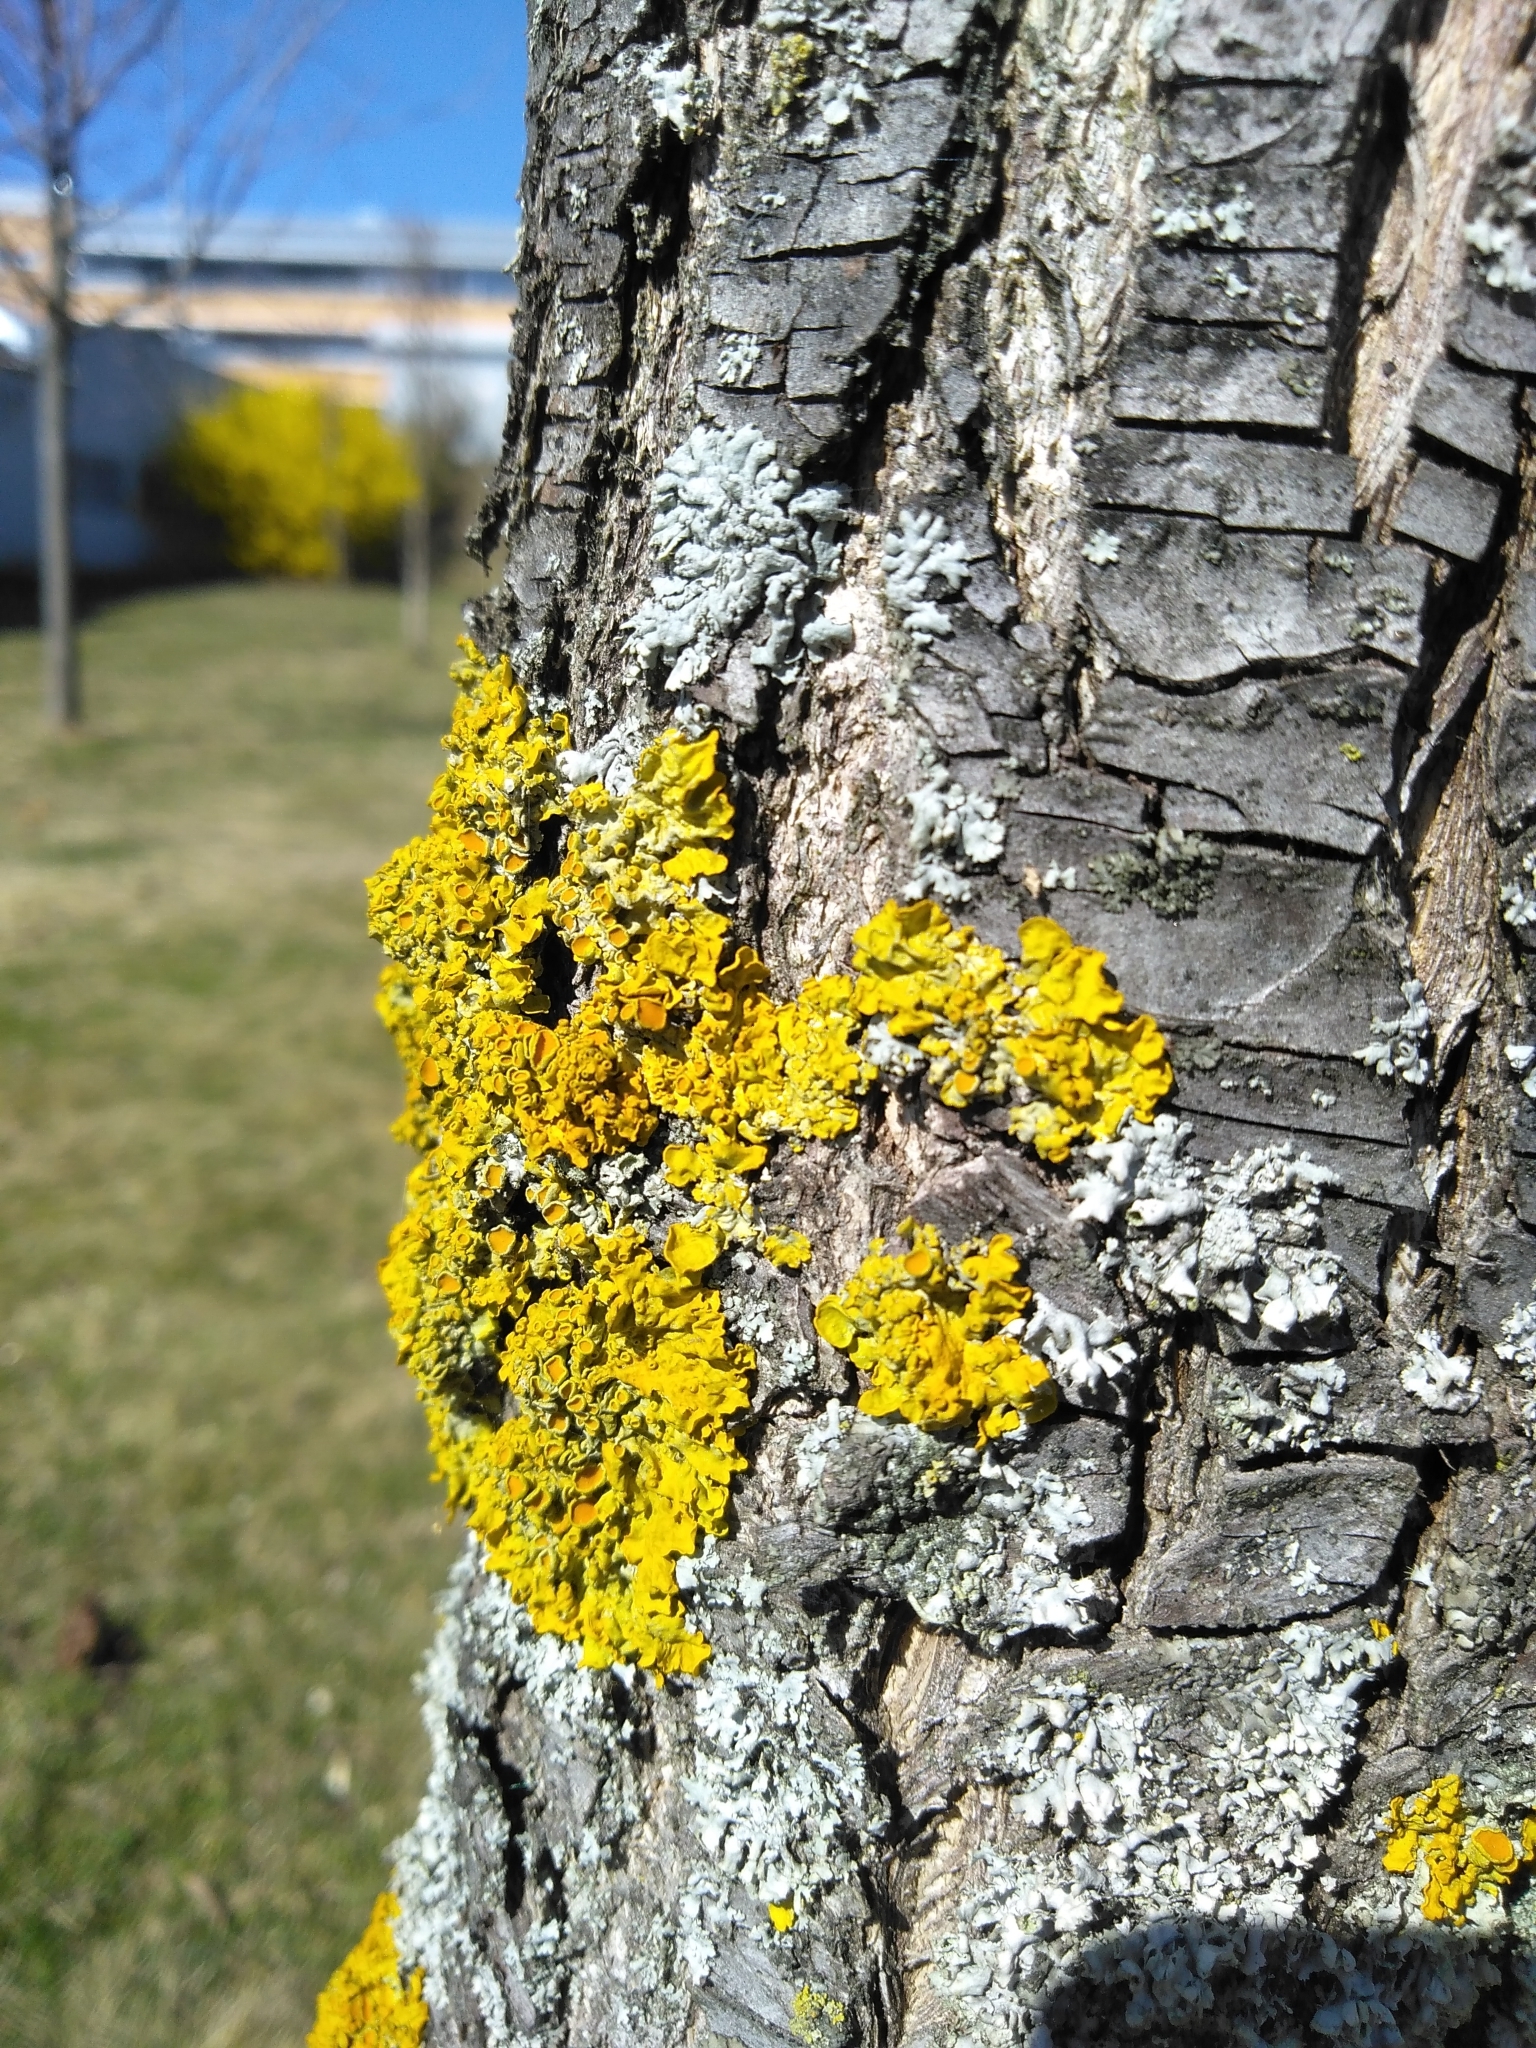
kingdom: Fungi
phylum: Ascomycota
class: Lecanoromycetes
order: Teloschistales
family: Teloschistaceae
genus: Xanthoria
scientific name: Xanthoria parietina
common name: Common orange lichen
